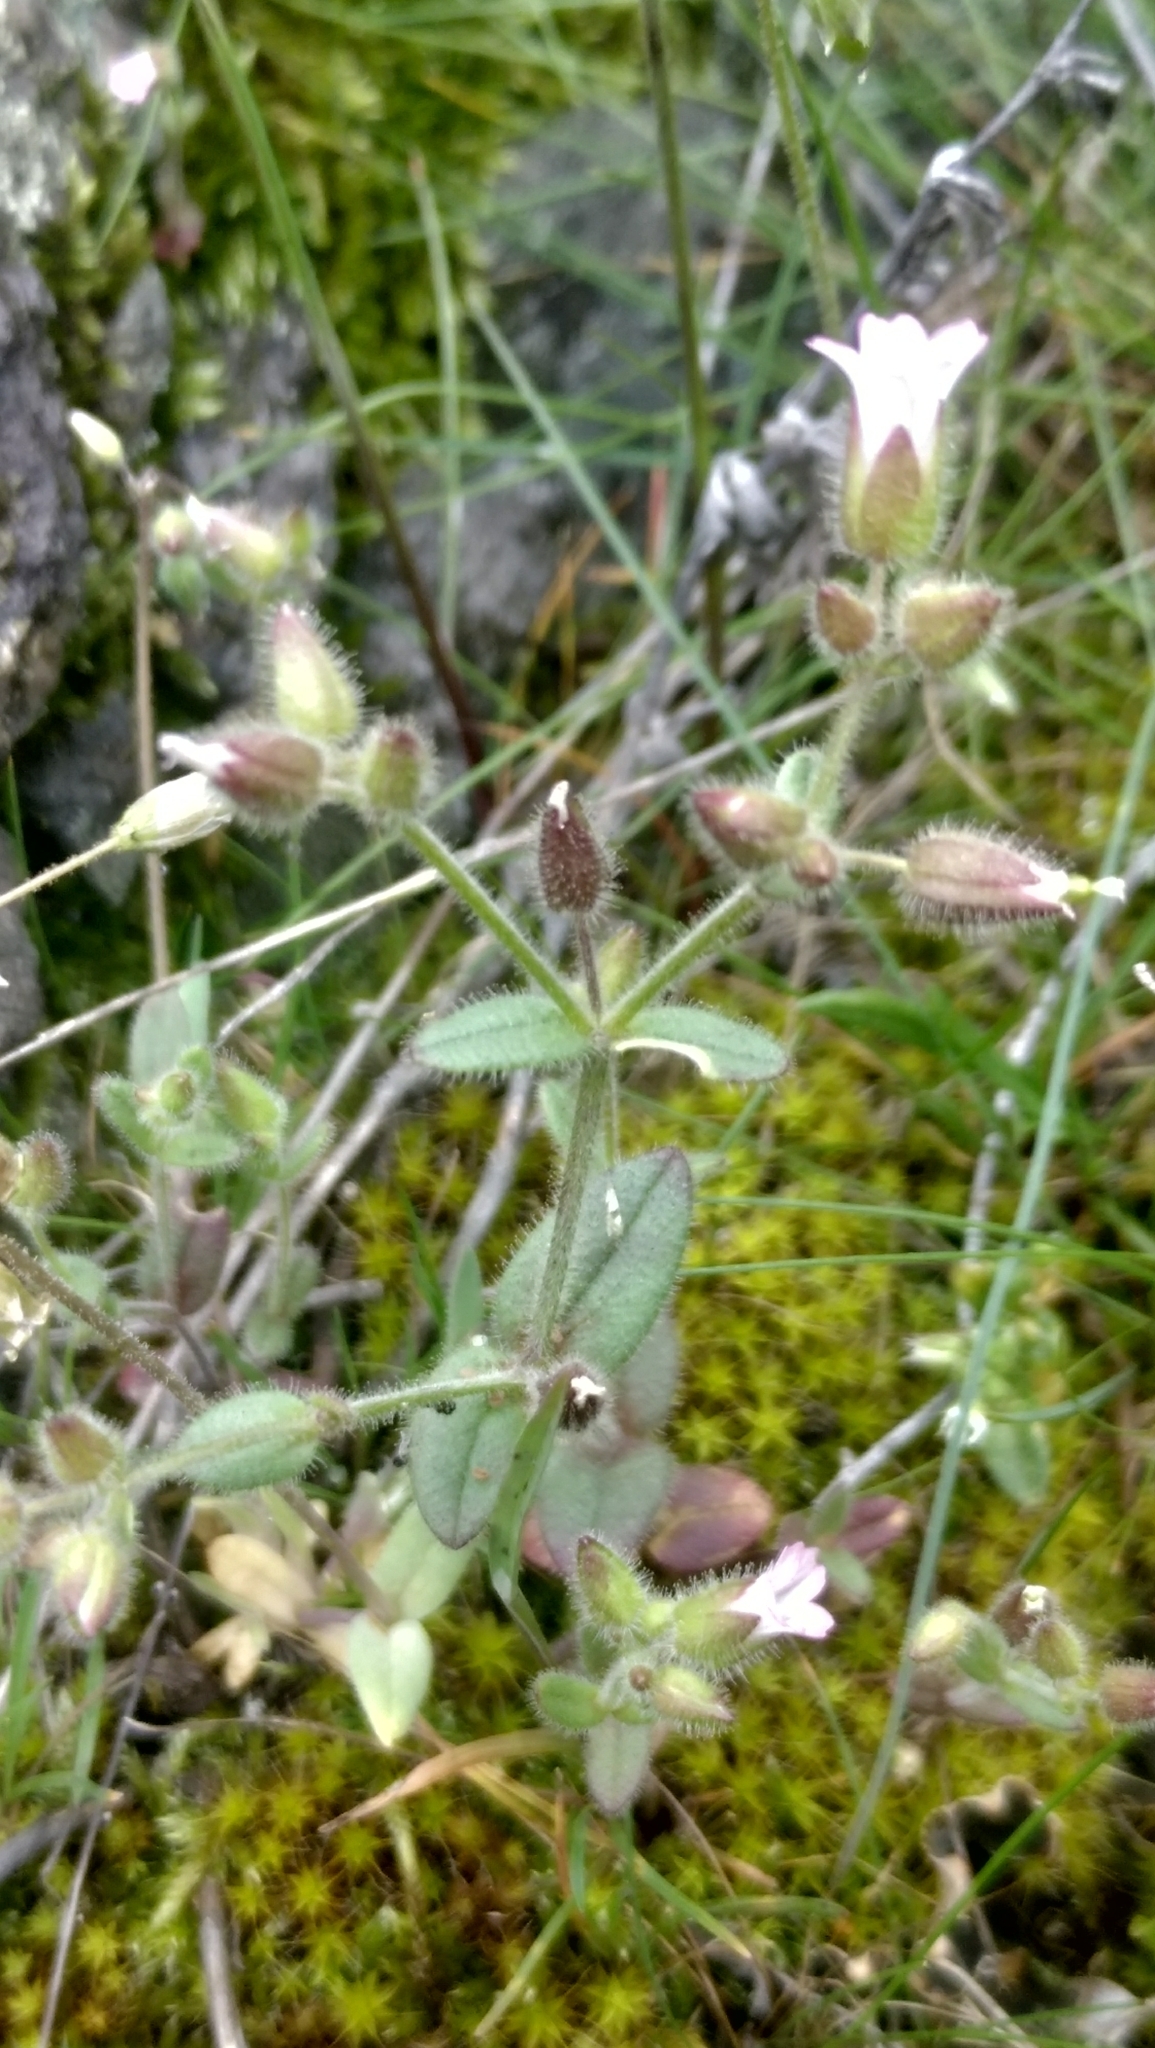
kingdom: Plantae
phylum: Tracheophyta
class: Magnoliopsida
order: Caryophyllales
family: Caryophyllaceae
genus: Cerastium
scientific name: Cerastium ramosissimum
